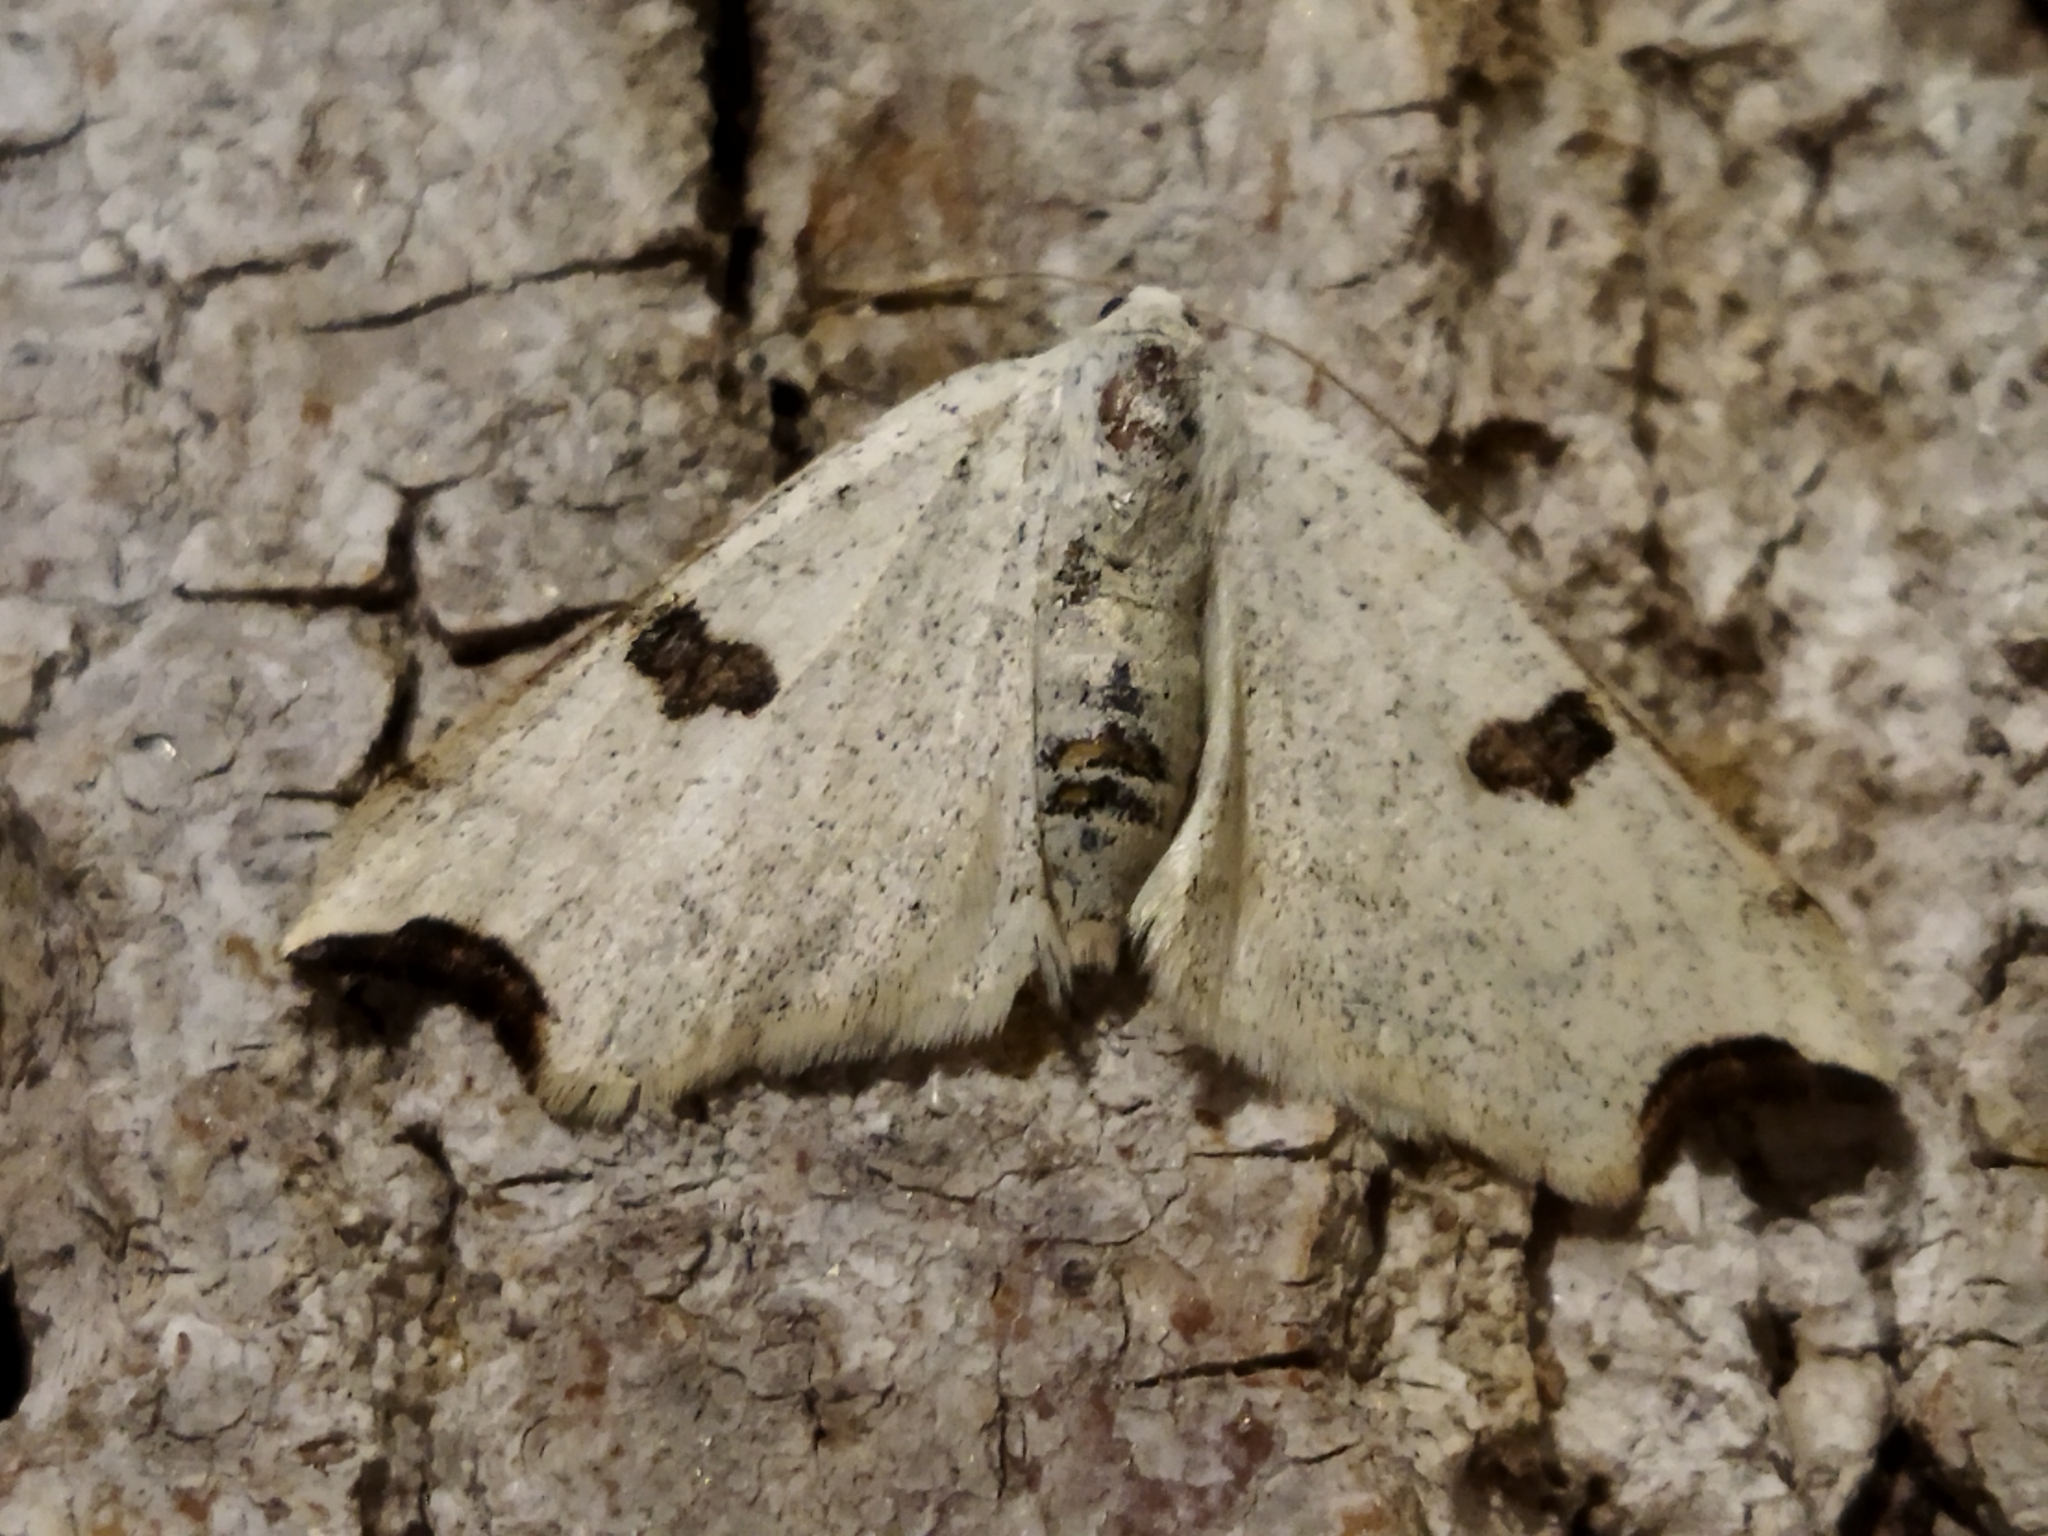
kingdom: Animalia
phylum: Arthropoda
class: Insecta
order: Lepidoptera
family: Geometridae
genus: Eilicrinia
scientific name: Eilicrinia cordiaria
